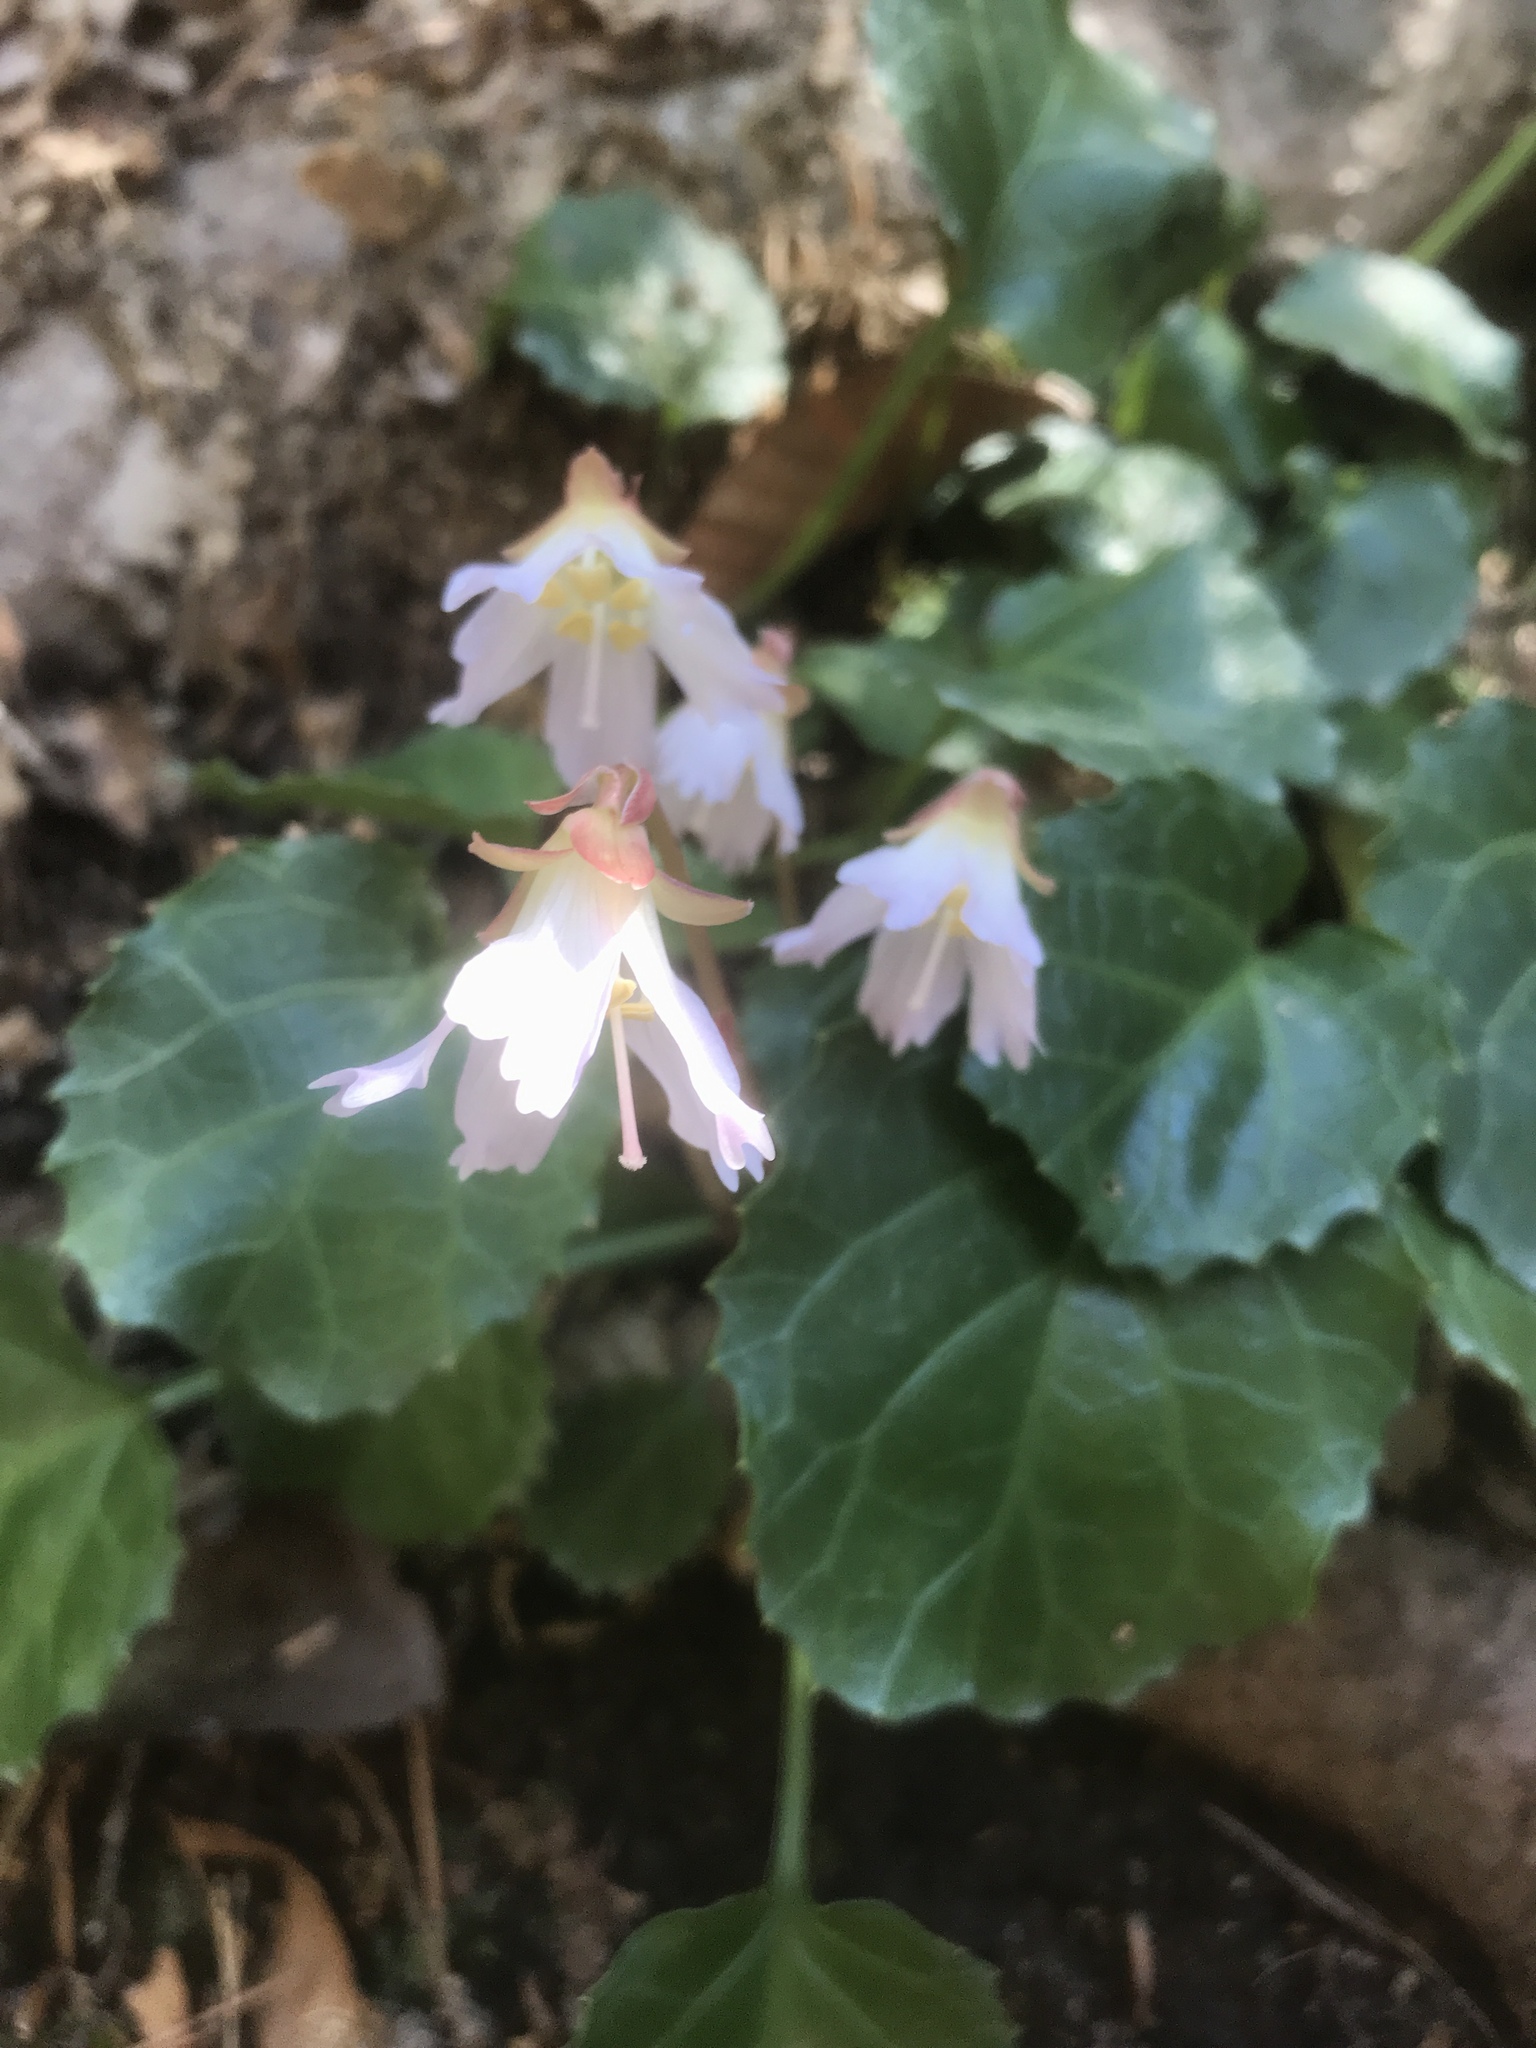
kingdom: Plantae
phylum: Tracheophyta
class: Magnoliopsida
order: Ericales
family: Diapensiaceae
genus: Shortia
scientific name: Shortia galacifolia
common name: Shortia
